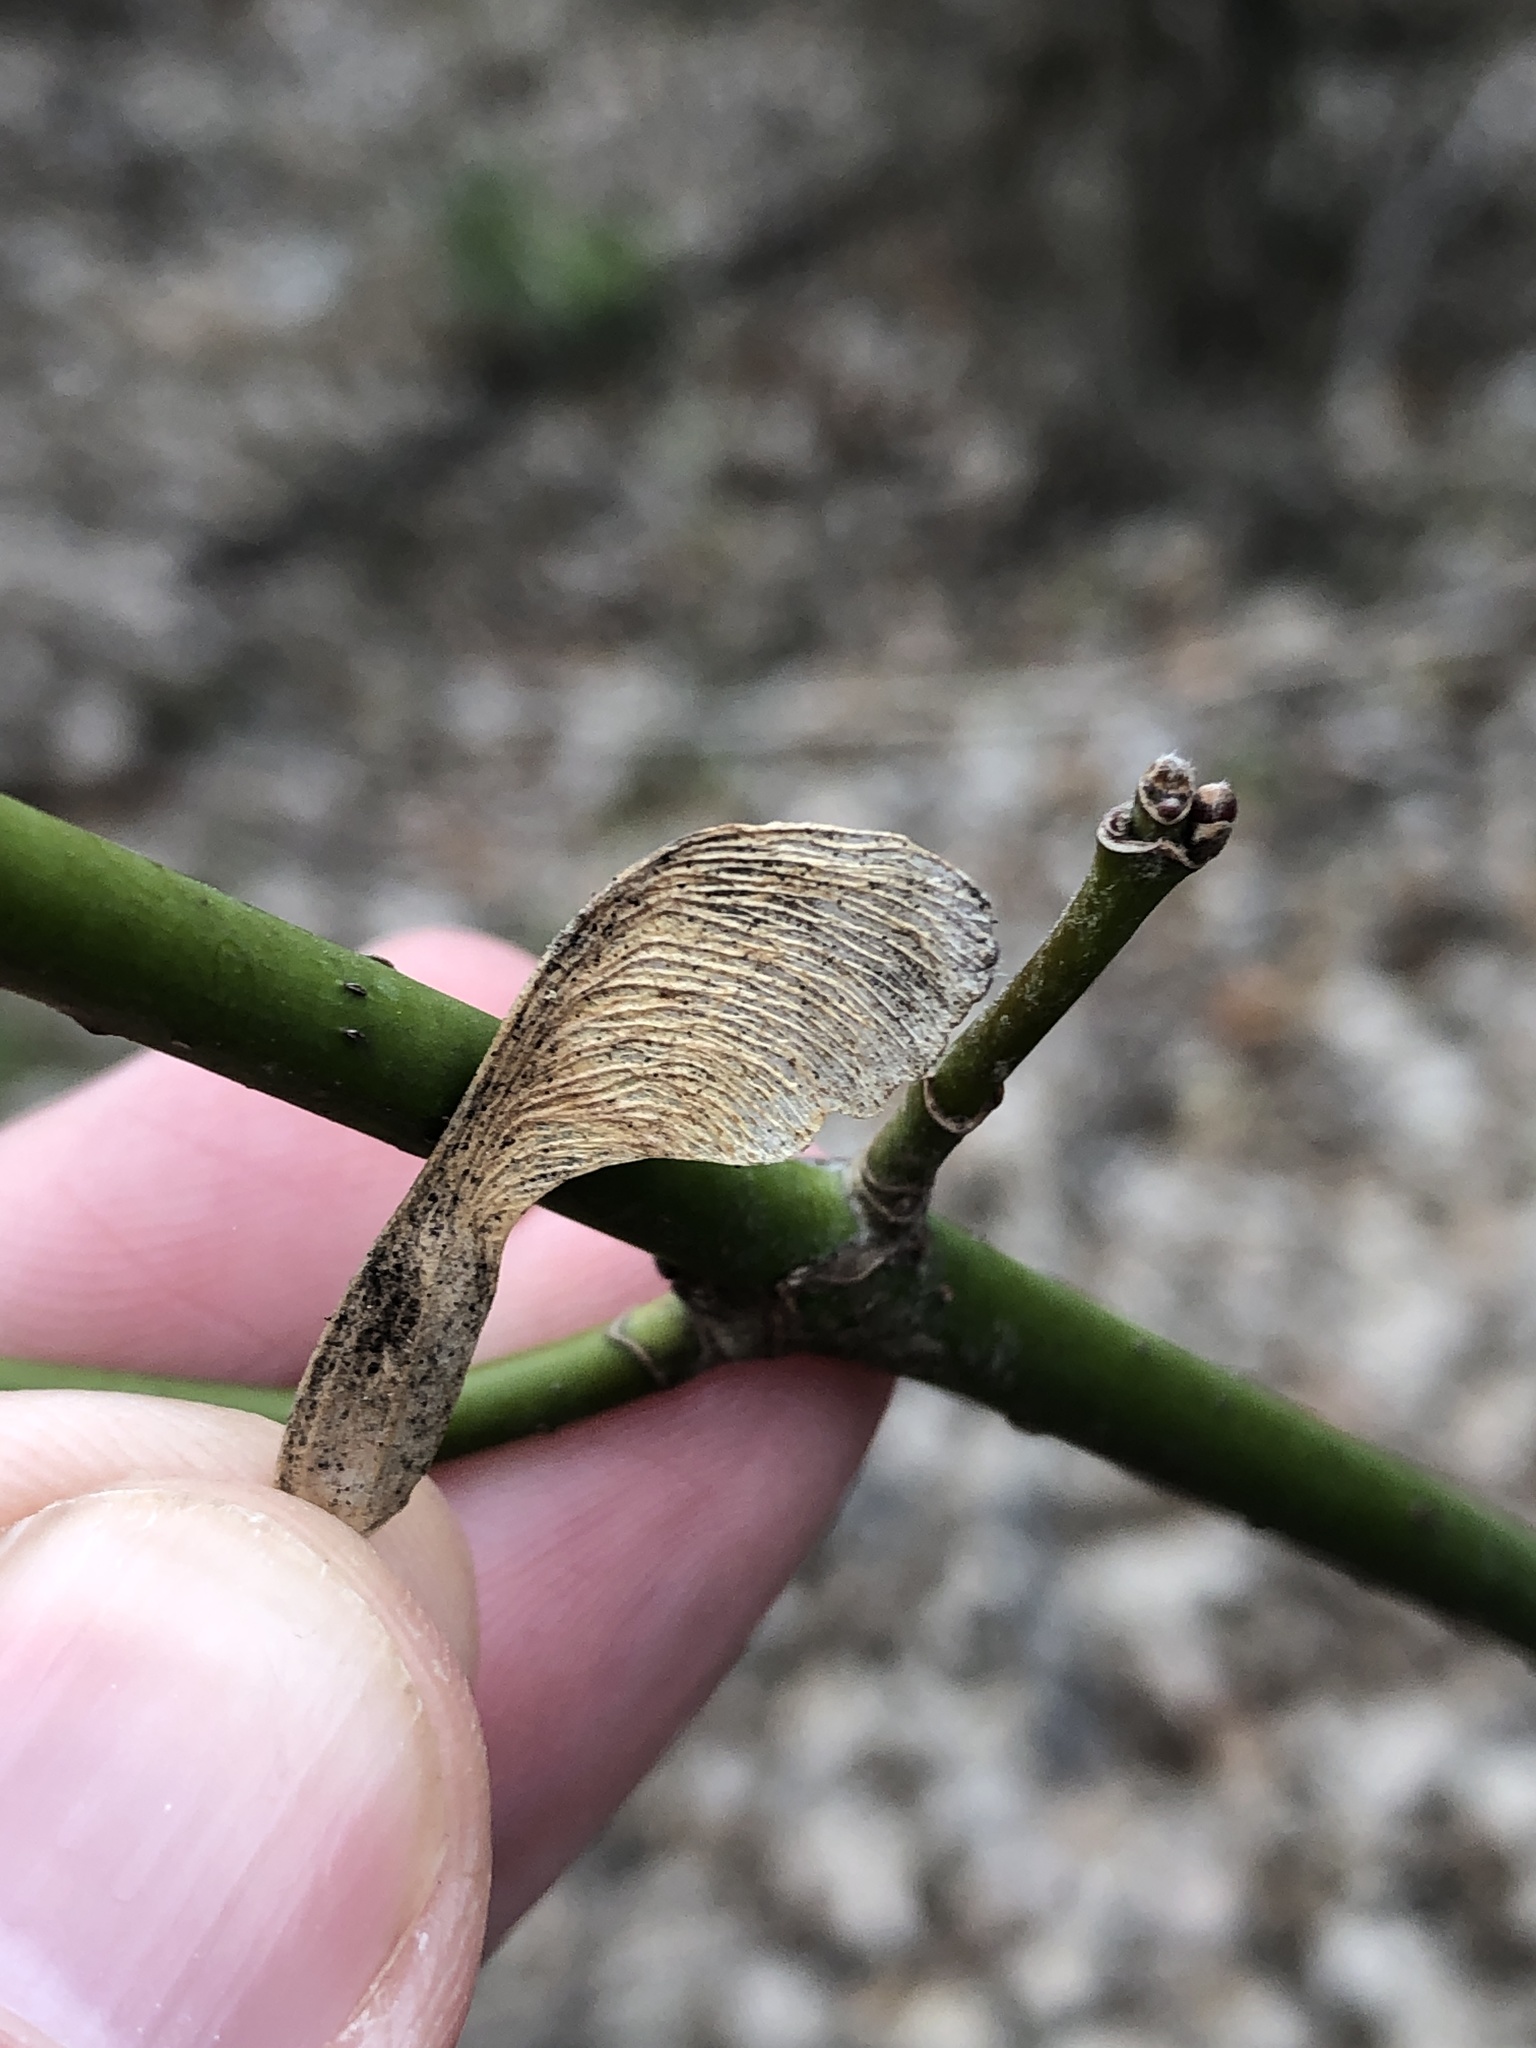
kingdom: Plantae
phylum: Tracheophyta
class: Magnoliopsida
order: Sapindales
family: Sapindaceae
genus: Acer
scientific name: Acer negundo
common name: Ashleaf maple
